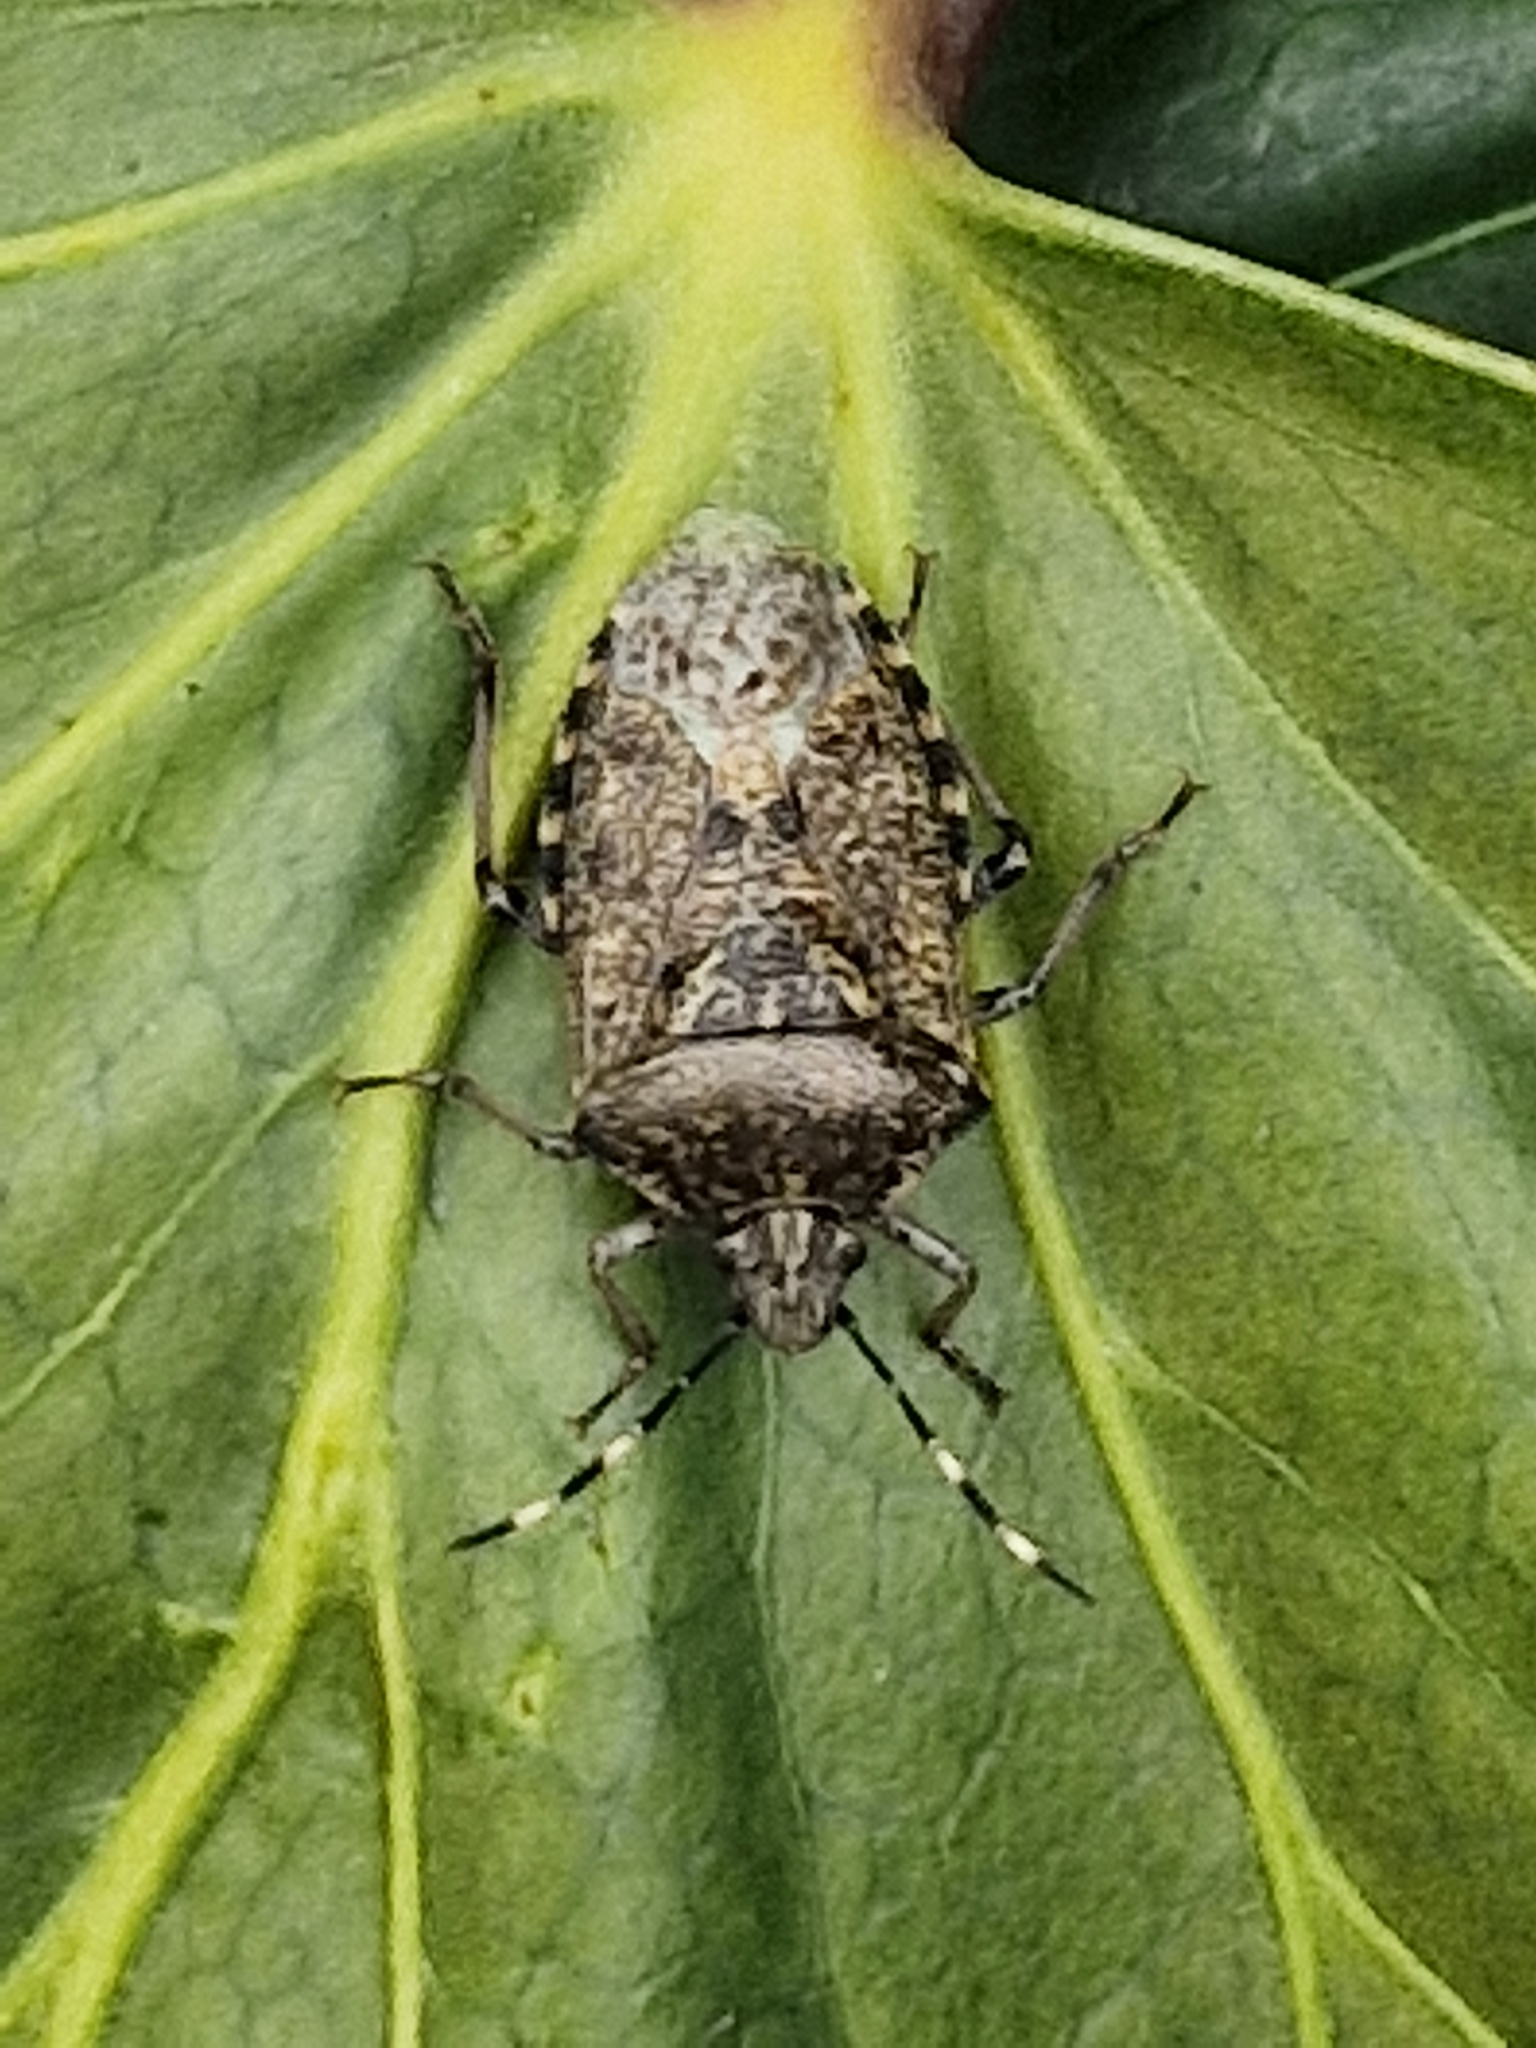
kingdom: Animalia
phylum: Arthropoda
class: Insecta
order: Hemiptera
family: Pentatomidae
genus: Rhaphigaster
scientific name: Rhaphigaster nebulosa
